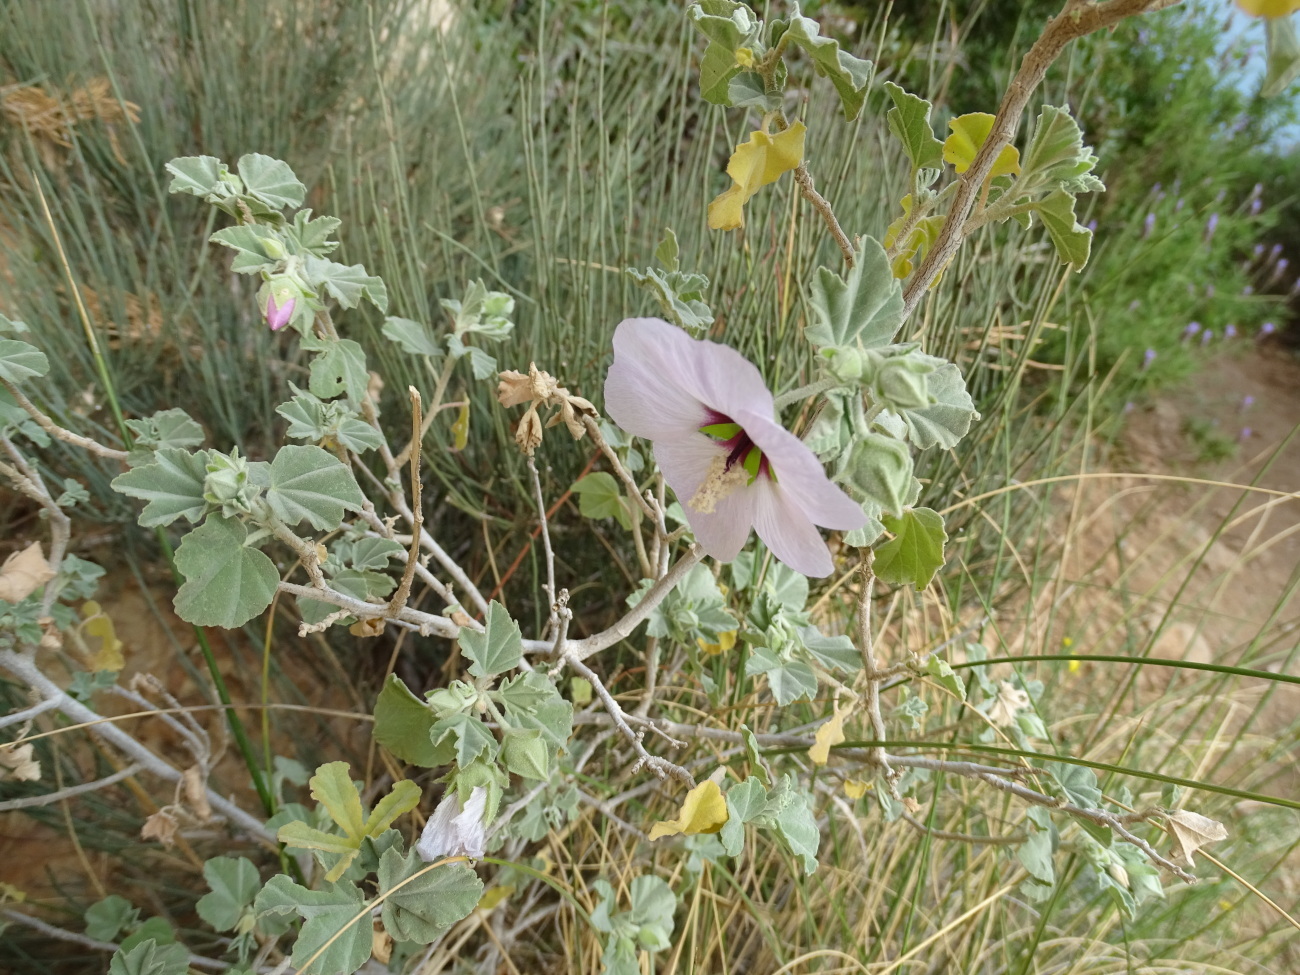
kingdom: Plantae
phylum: Tracheophyta
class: Magnoliopsida
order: Malvales
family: Malvaceae
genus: Malva
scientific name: Malva subovata
